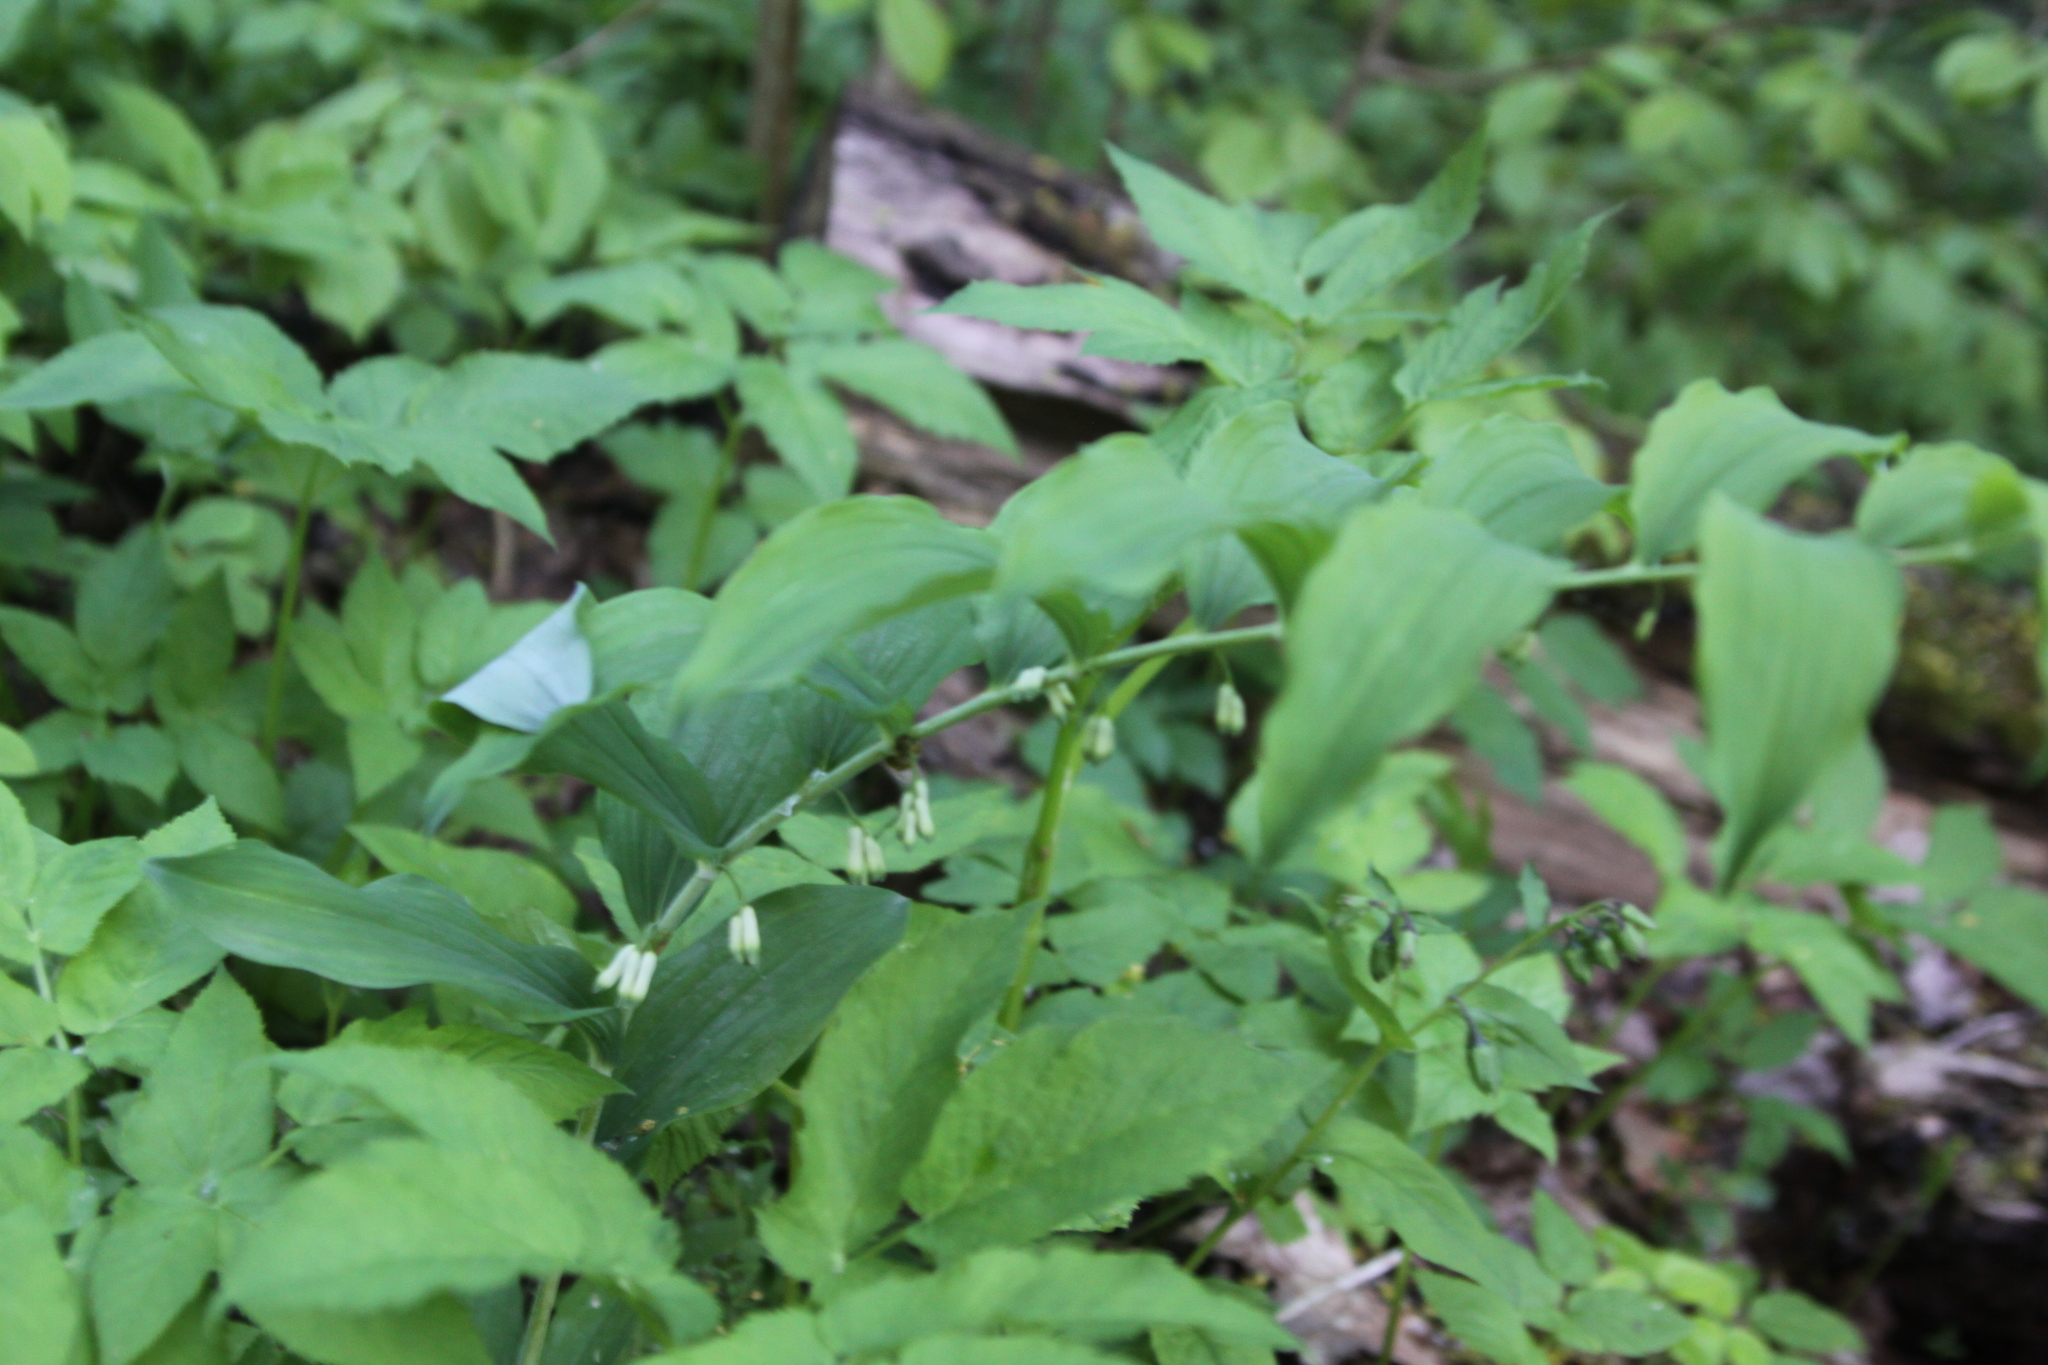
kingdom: Plantae
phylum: Tracheophyta
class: Liliopsida
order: Asparagales
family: Asparagaceae
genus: Polygonatum
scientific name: Polygonatum multiflorum
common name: Solomon's-seal
